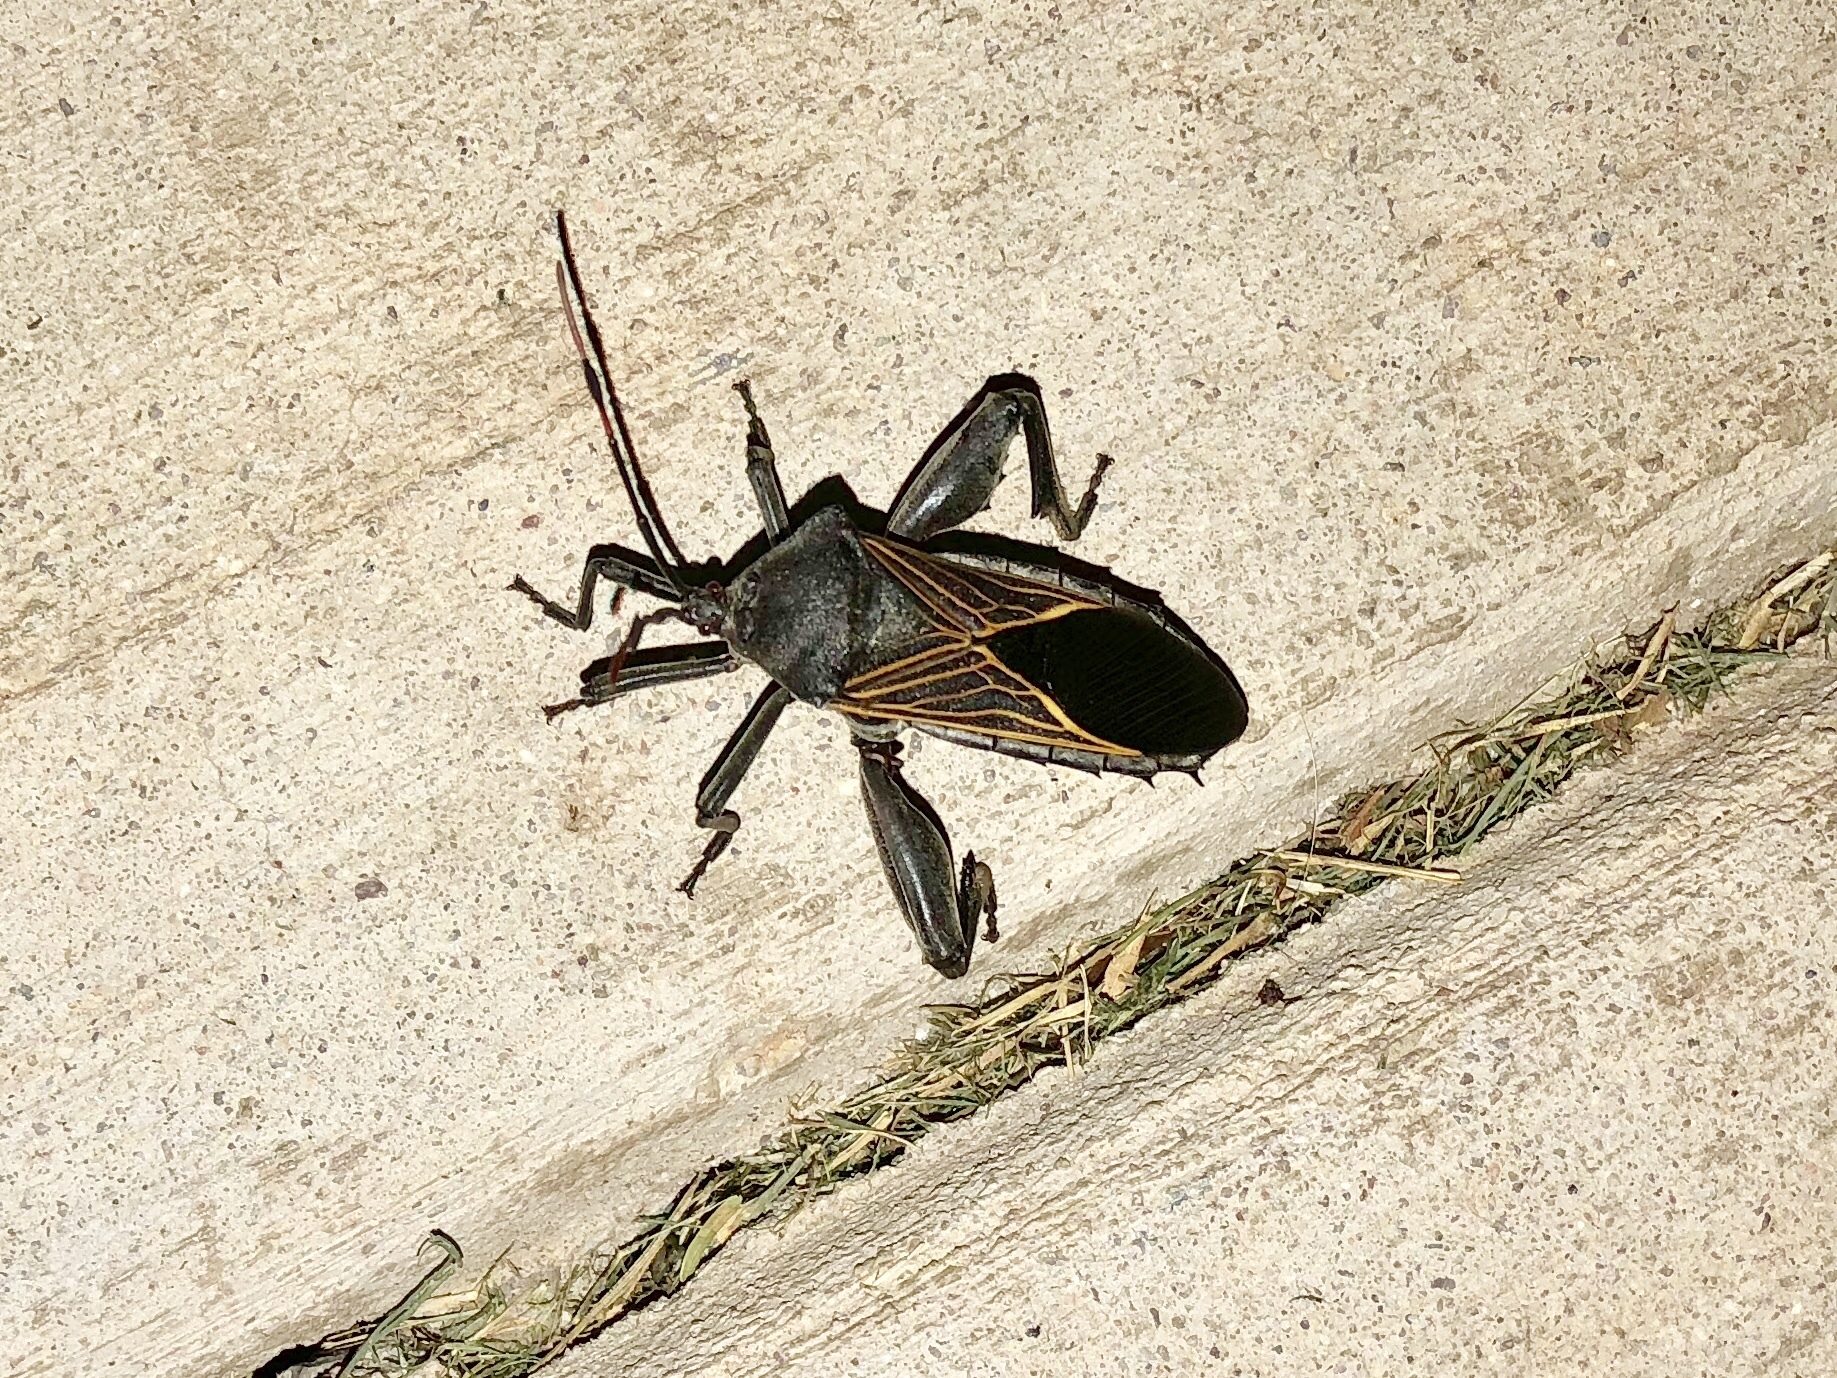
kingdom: Animalia
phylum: Arthropoda
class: Insecta
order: Hemiptera
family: Coreidae
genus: Thasus
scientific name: Thasus neocalifornicus
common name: Giant mesquite bug
